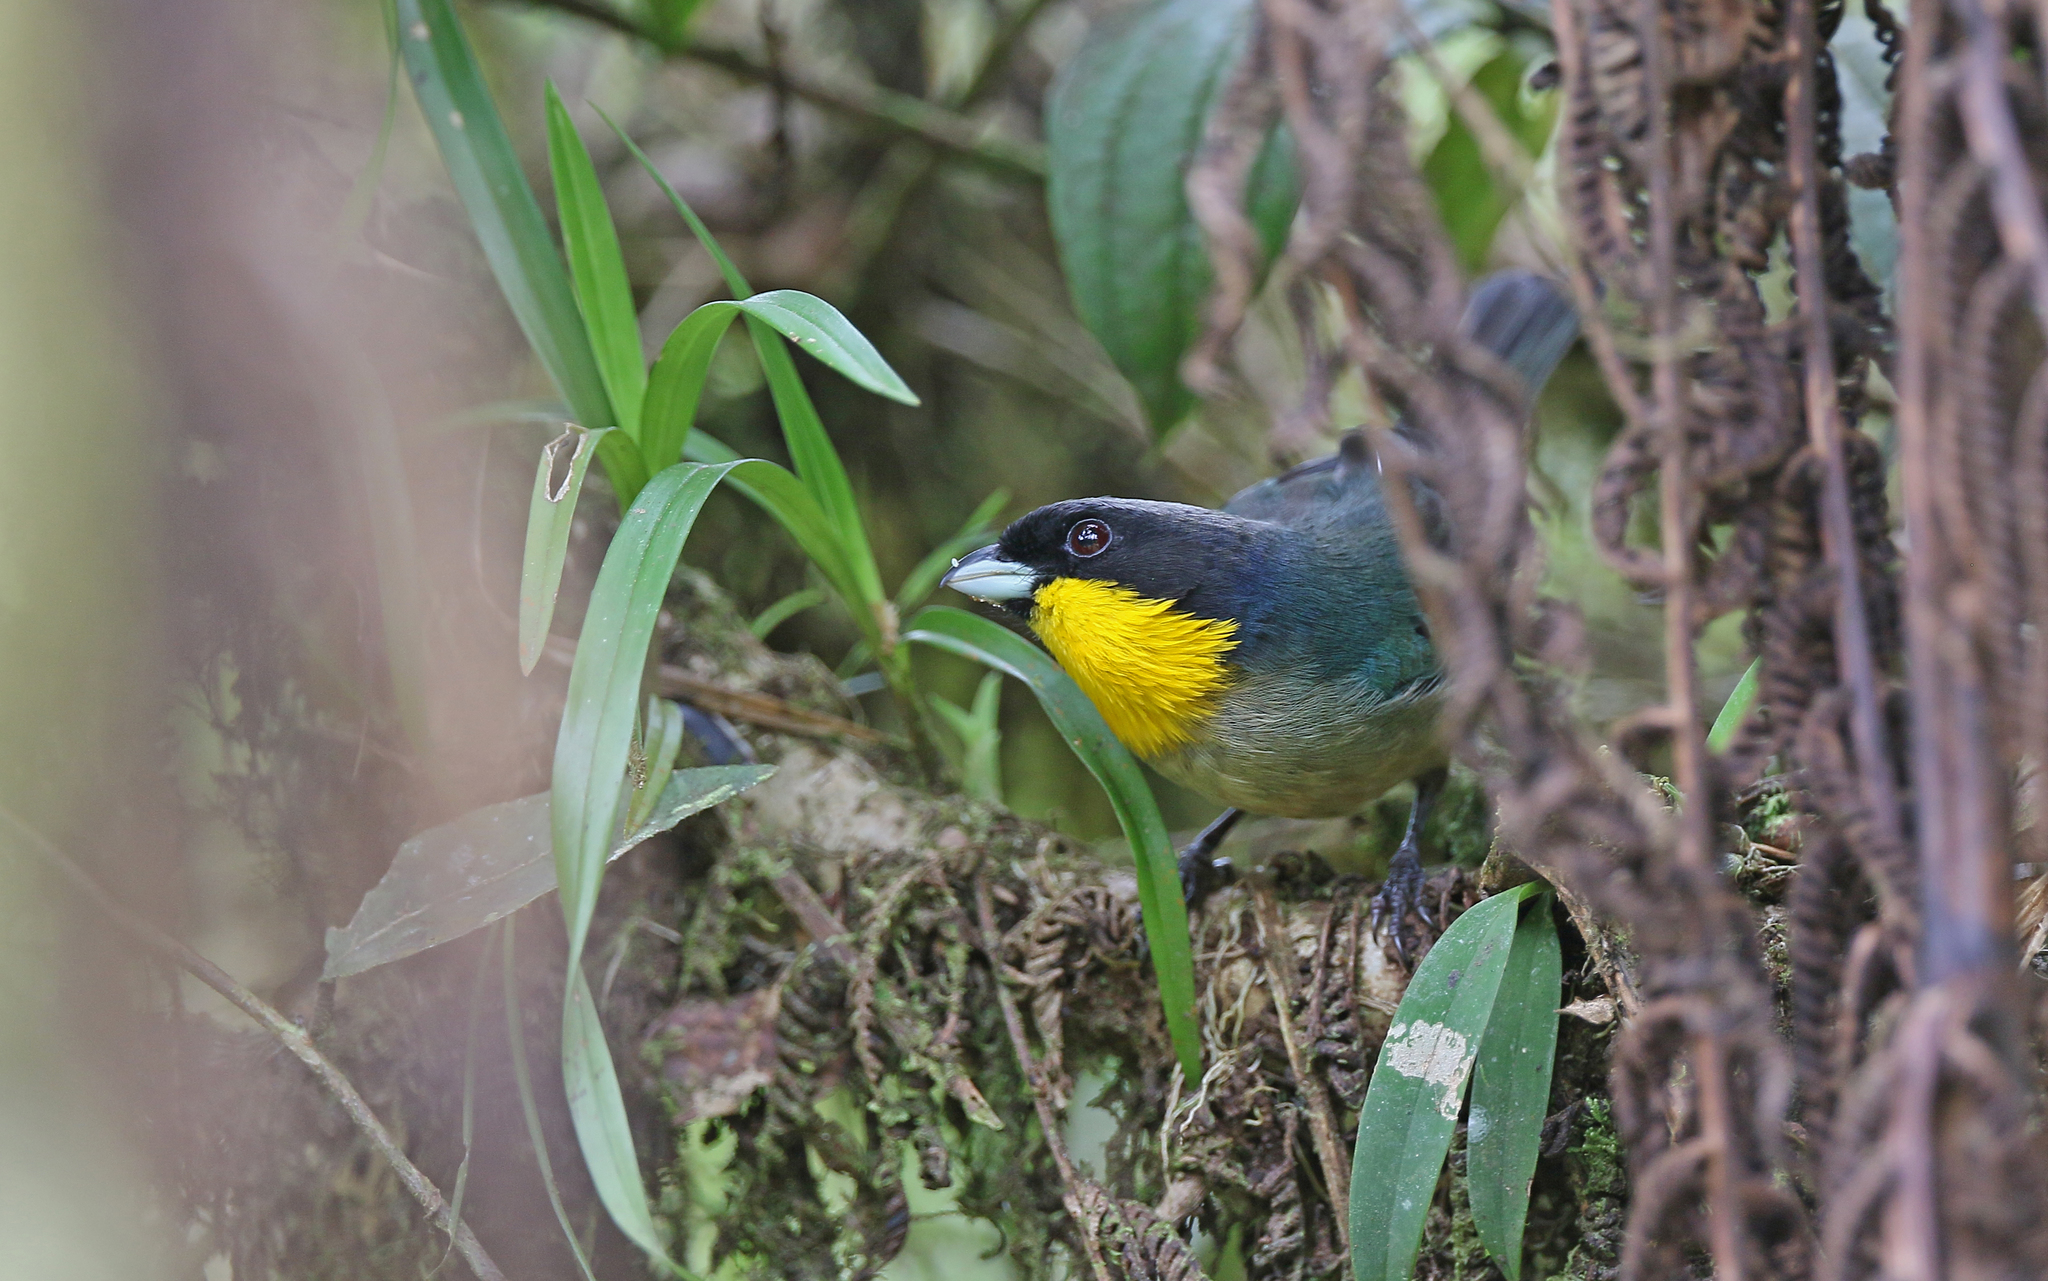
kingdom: Animalia
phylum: Chordata
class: Aves
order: Passeriformes
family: Thraupidae
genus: Iridosornis
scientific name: Iridosornis analis
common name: Yellow-throated tanager
